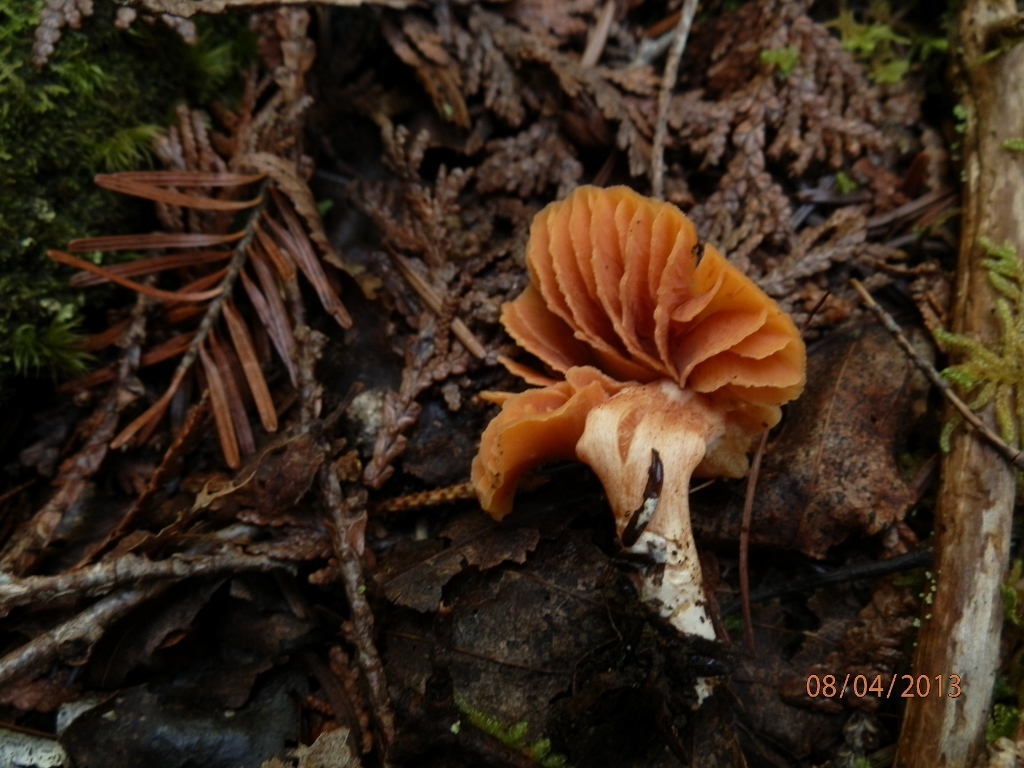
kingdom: Fungi
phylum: Basidiomycota
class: Agaricomycetes
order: Agaricales
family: Entolomataceae
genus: Entoloma
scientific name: Entoloma quadratum
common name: Salmon pinkgill
